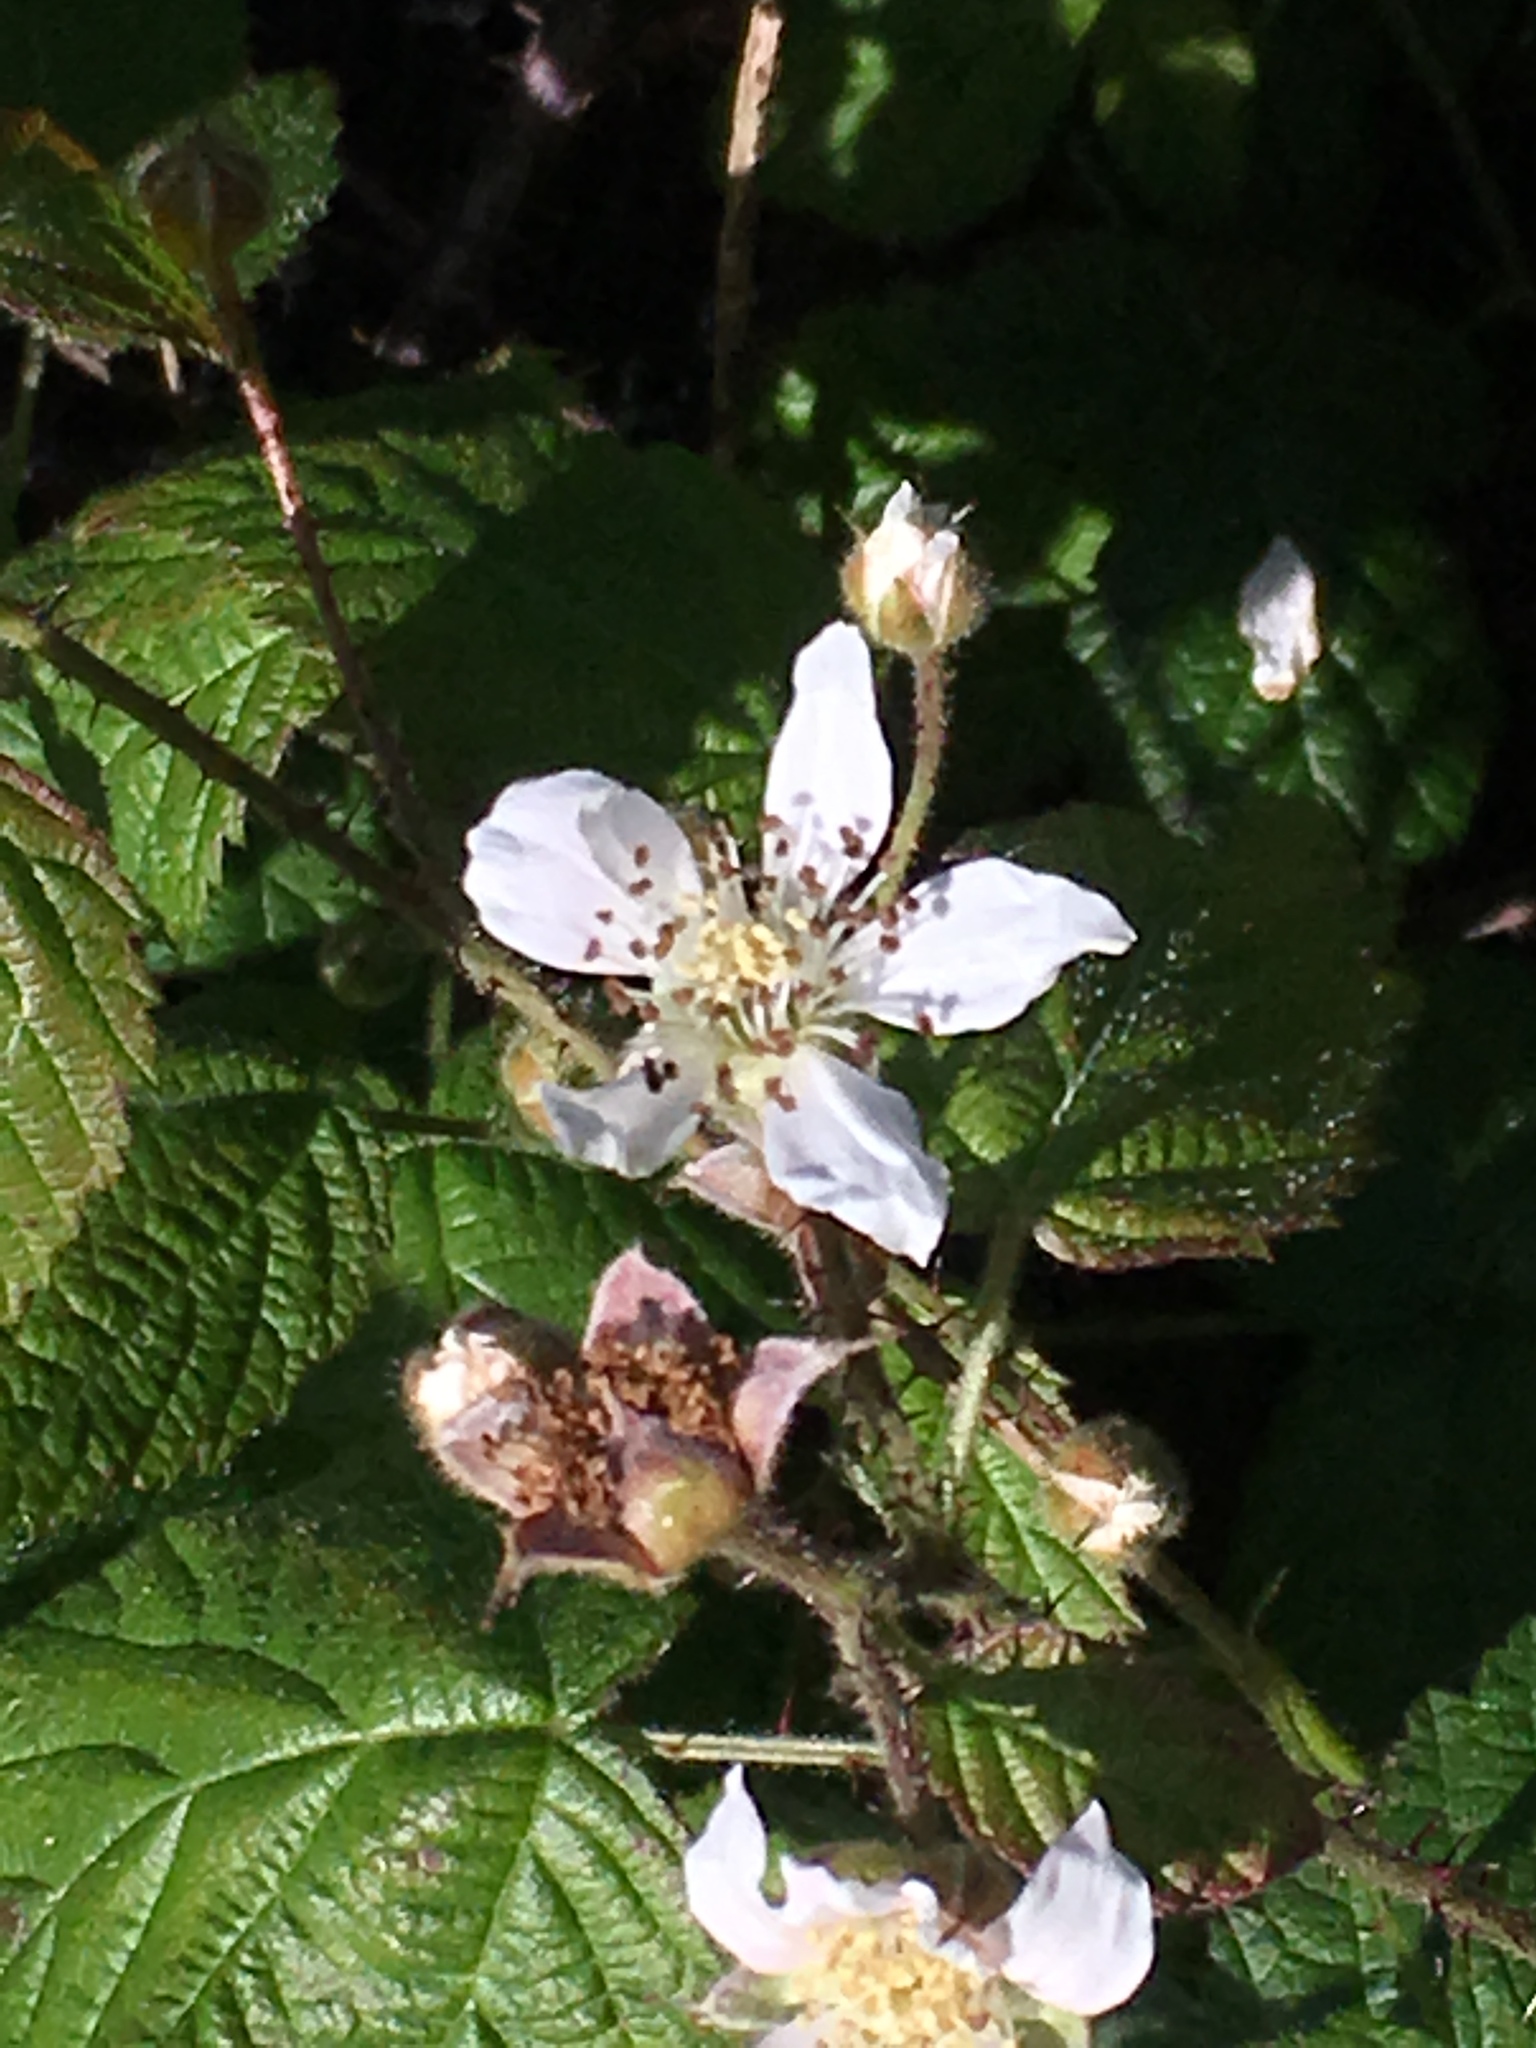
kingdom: Plantae
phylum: Tracheophyta
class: Magnoliopsida
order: Rosales
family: Rosaceae
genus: Rubus
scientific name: Rubus ursinus
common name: Pacific blackberry
